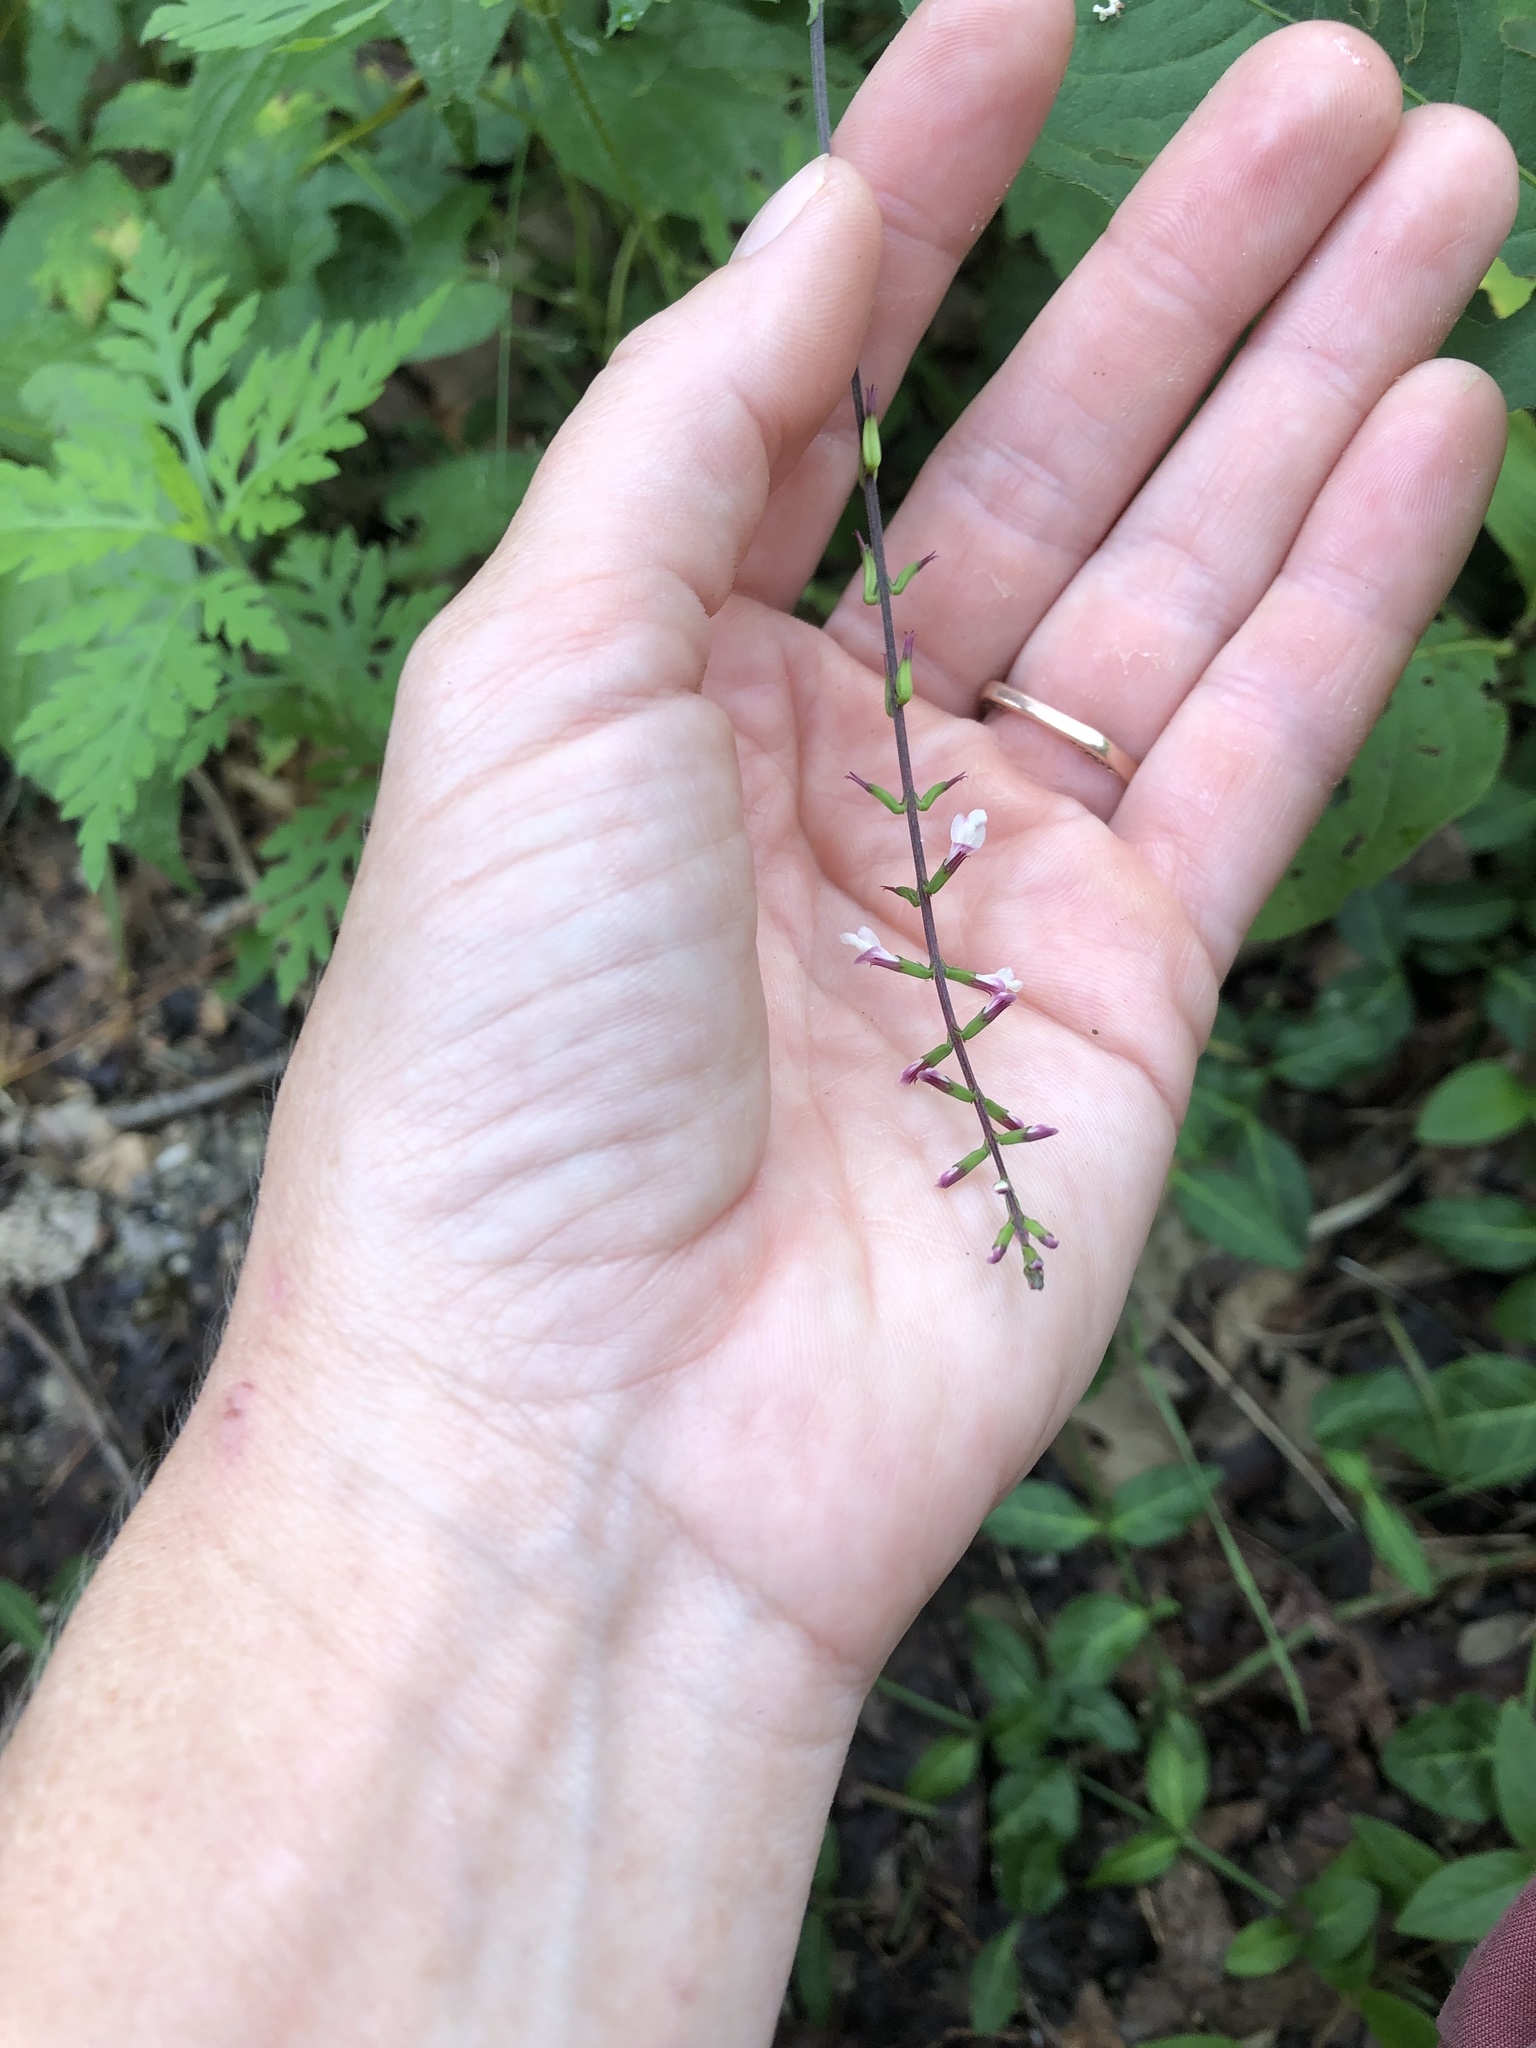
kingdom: Plantae
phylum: Tracheophyta
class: Magnoliopsida
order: Lamiales
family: Phrymaceae
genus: Phryma
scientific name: Phryma leptostachya
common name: American lopseed
